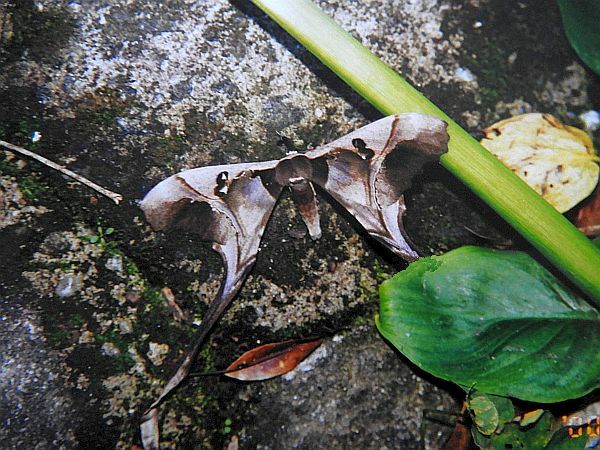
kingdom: Animalia
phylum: Arthropoda
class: Insecta
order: Lepidoptera
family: Saturniidae
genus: Copiopteryx
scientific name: Copiopteryx sonthonnaxi
